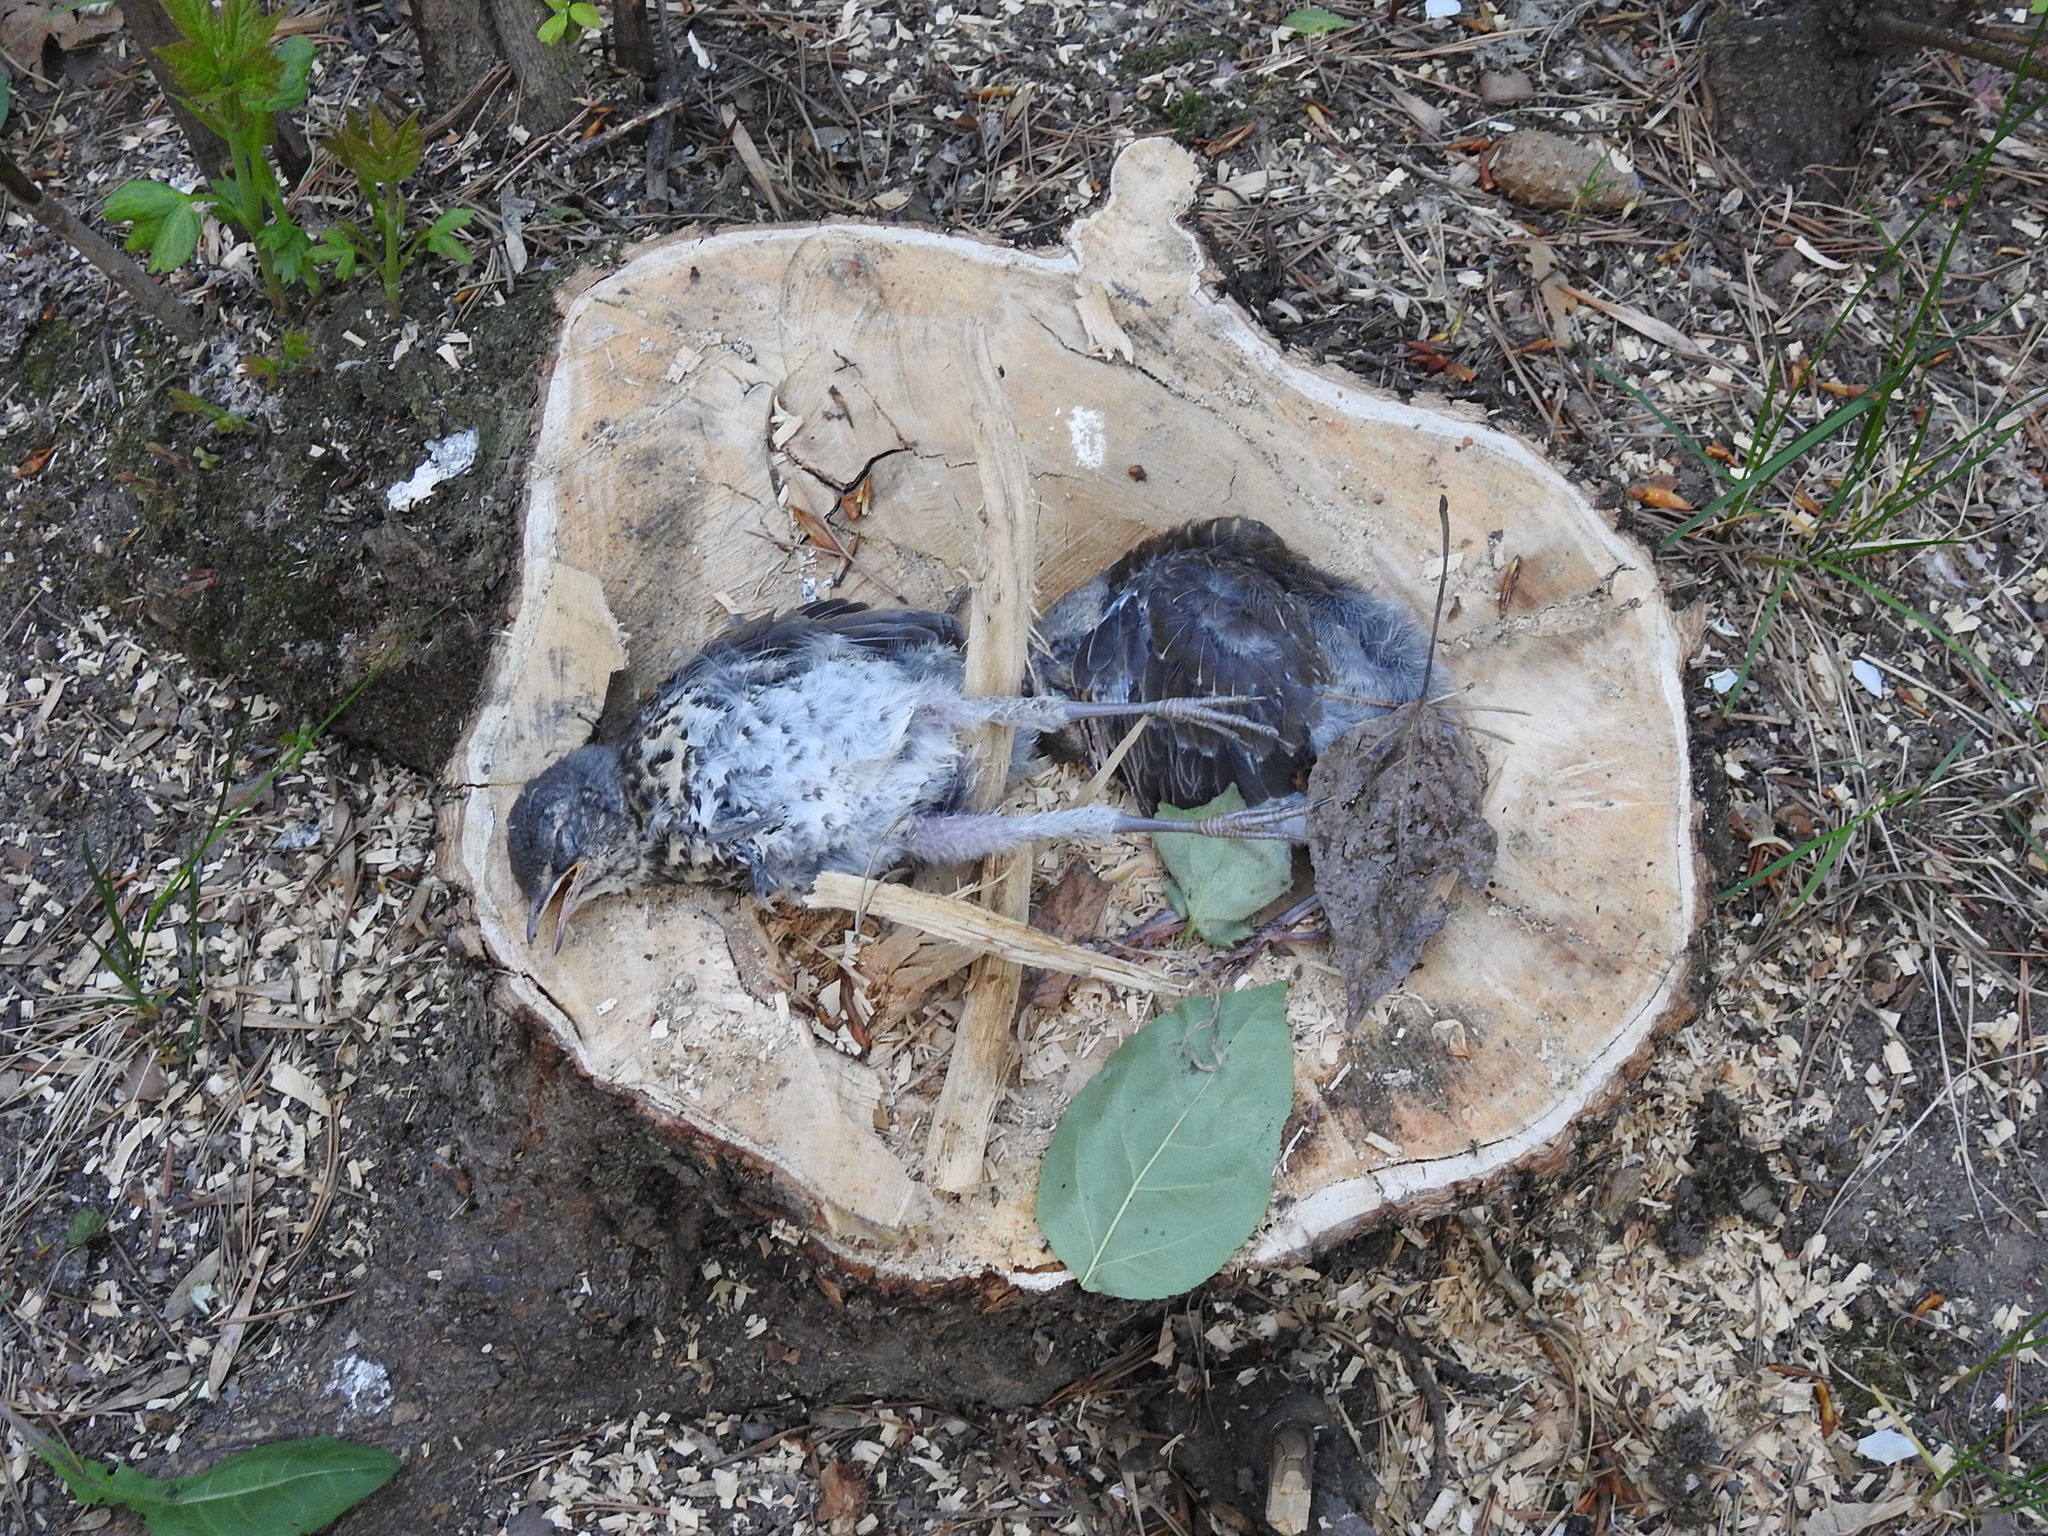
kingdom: Animalia
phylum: Chordata
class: Aves
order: Passeriformes
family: Turdidae
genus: Turdus
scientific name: Turdus pilaris
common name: Fieldfare
